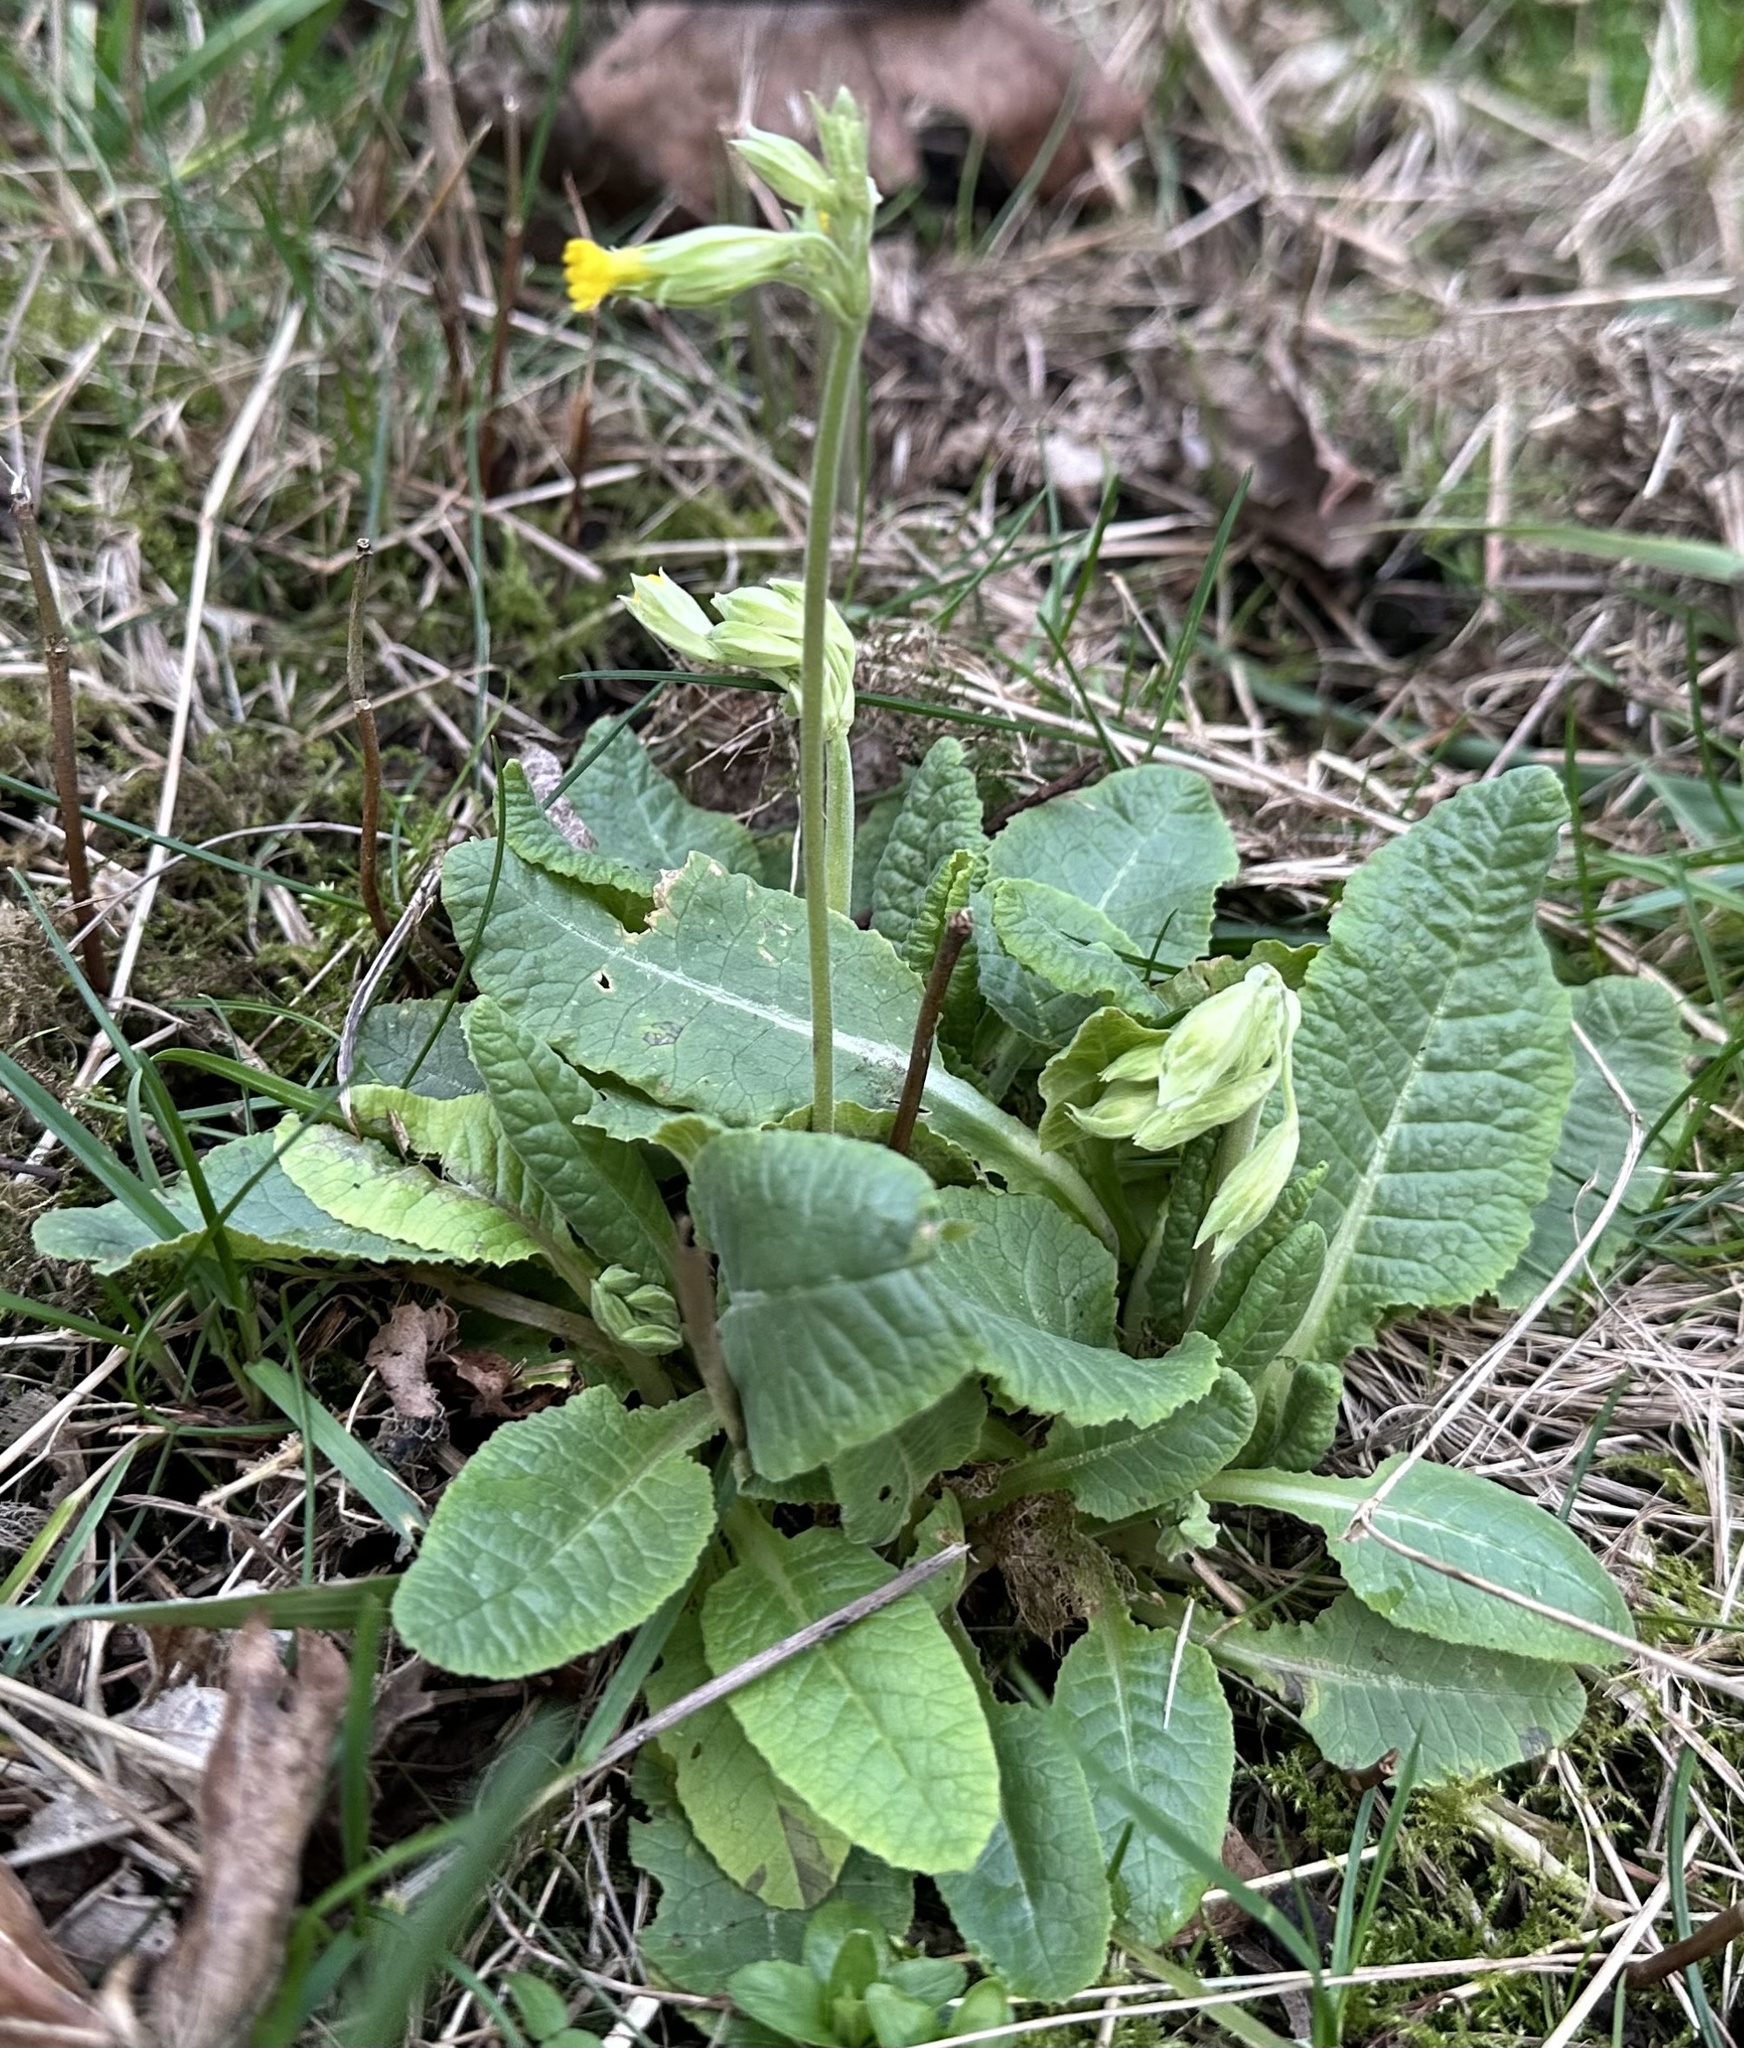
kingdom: Plantae
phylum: Tracheophyta
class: Magnoliopsida
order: Ericales
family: Primulaceae
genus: Primula
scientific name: Primula veris
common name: Cowslip
